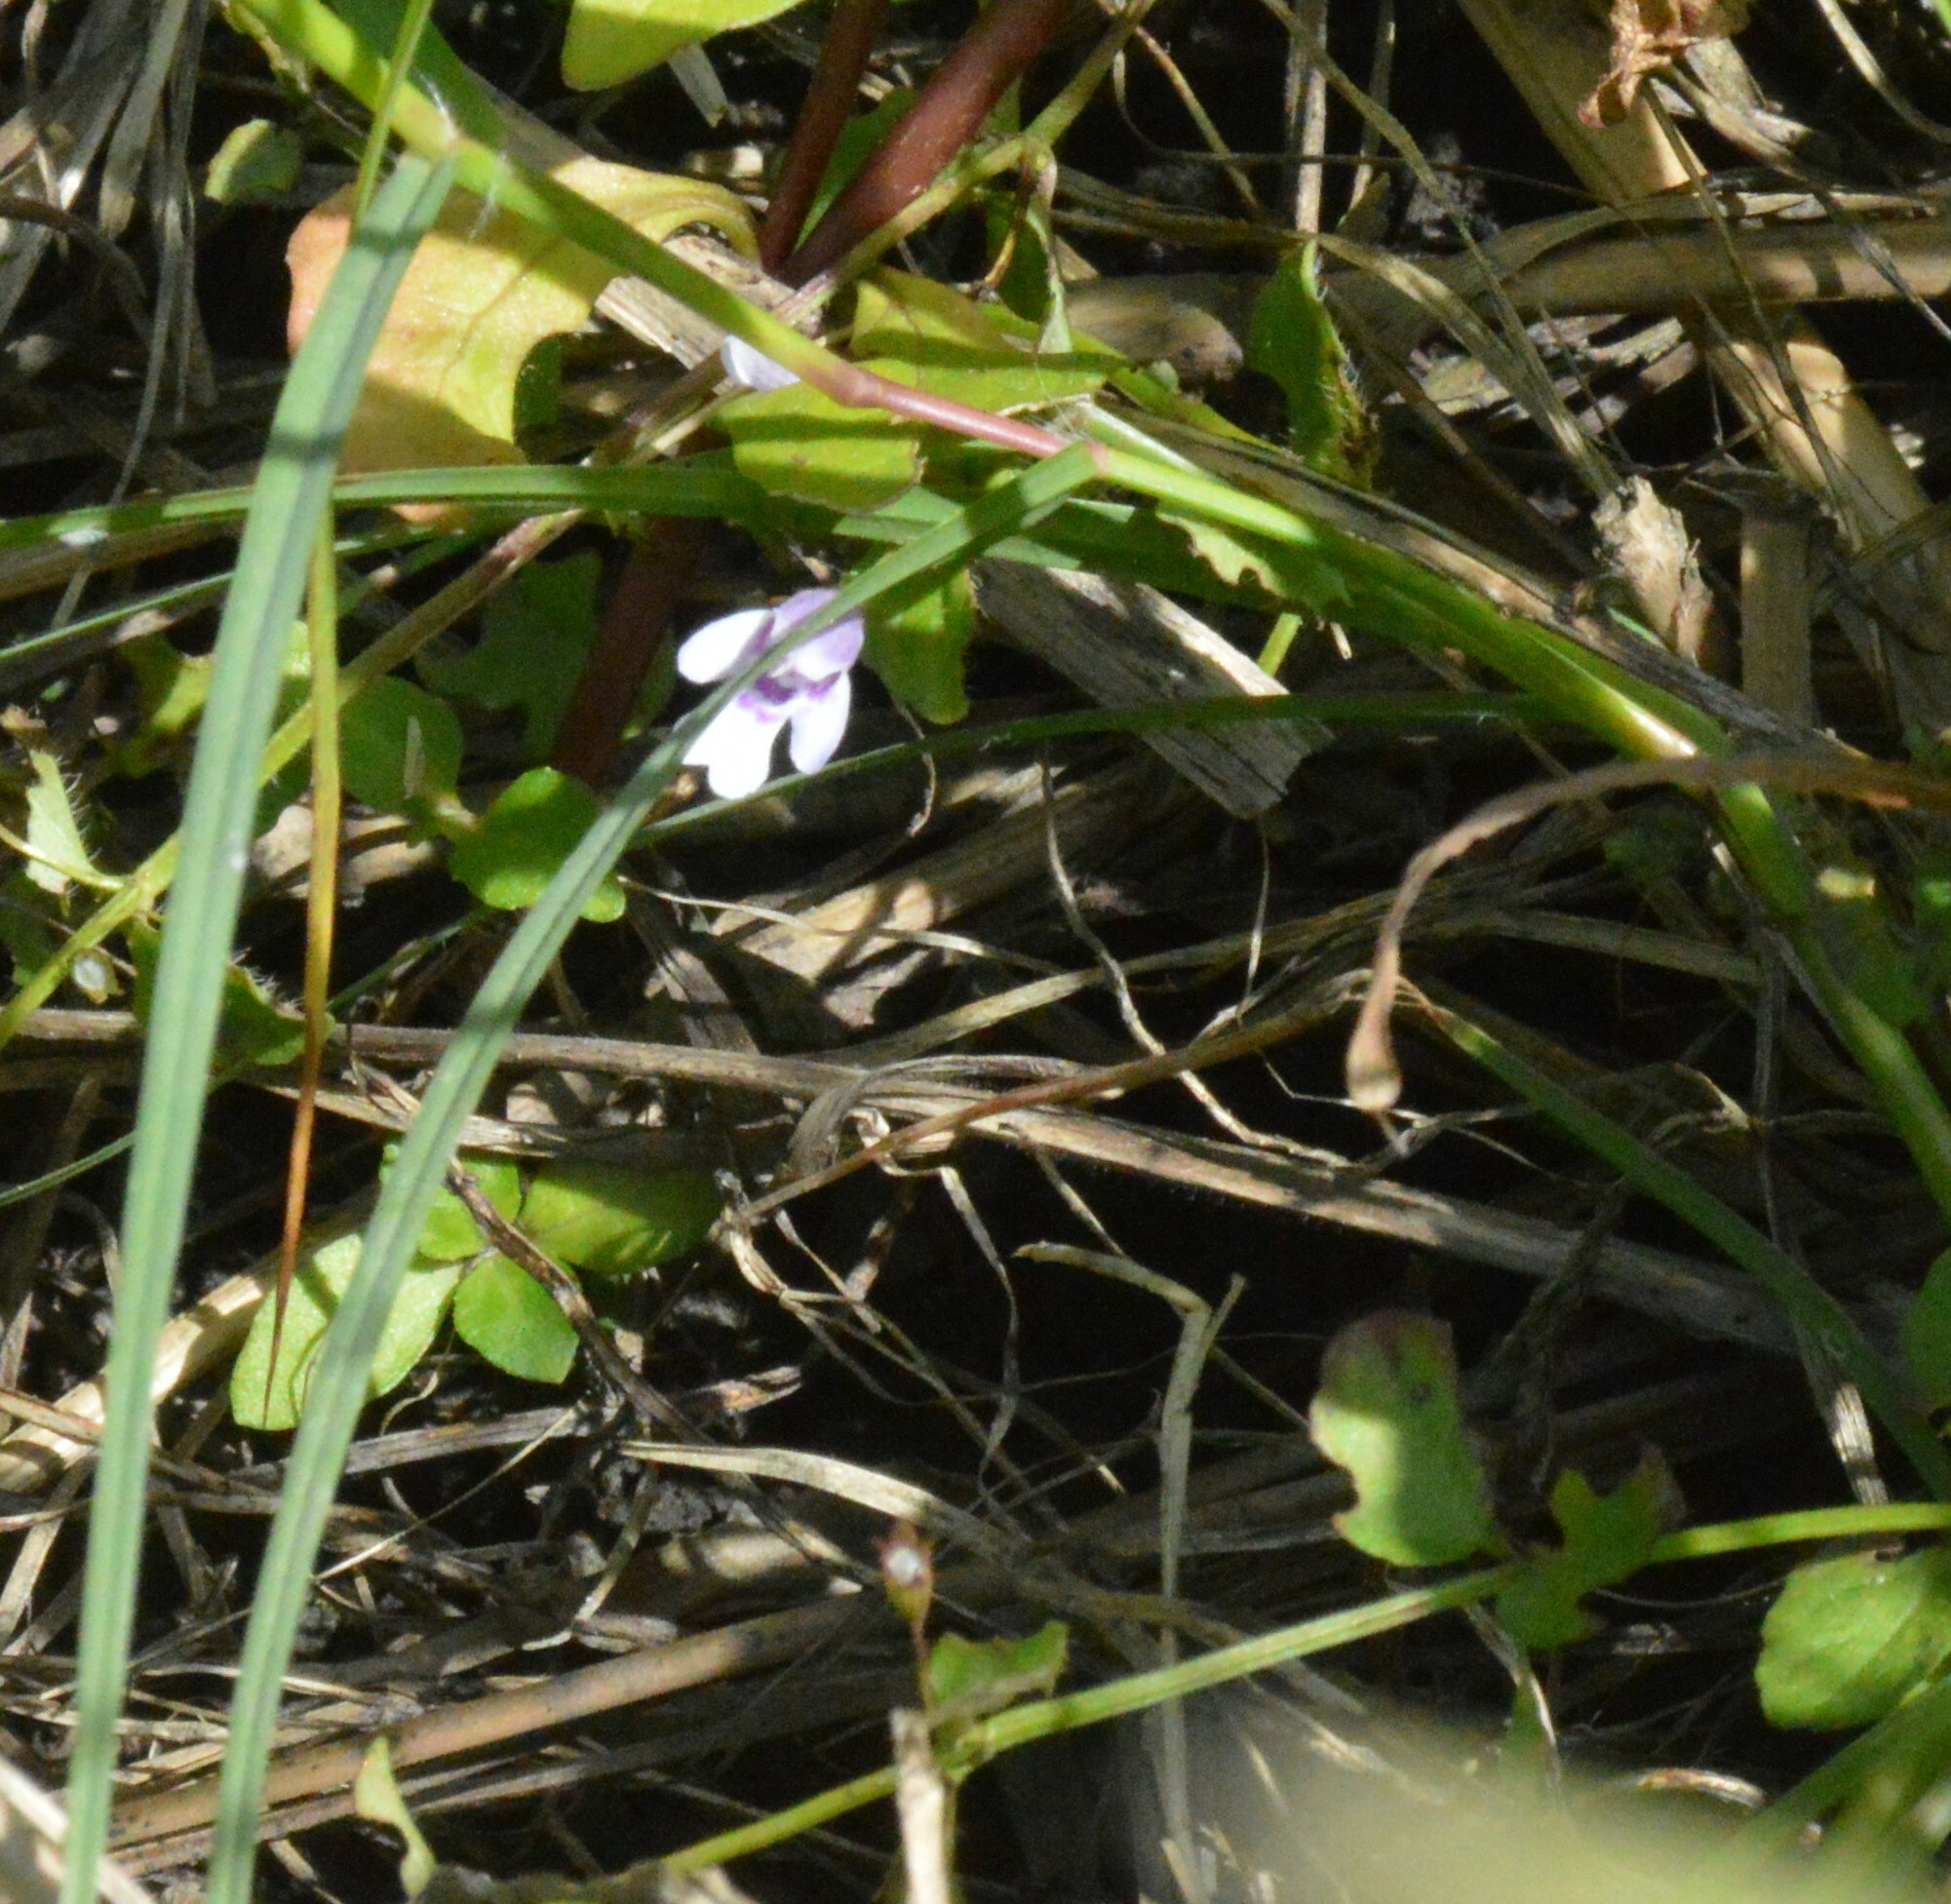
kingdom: Plantae
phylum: Tracheophyta
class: Magnoliopsida
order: Lamiales
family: Lamiaceae
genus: Clinopodium
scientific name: Clinopodium brownei
